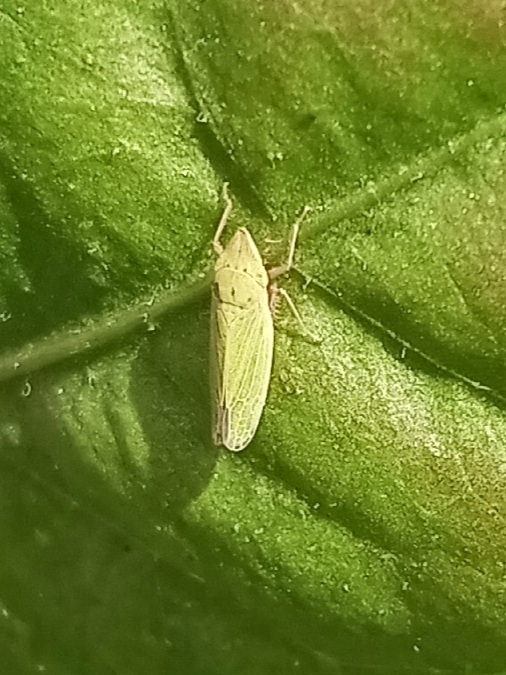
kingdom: Animalia
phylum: Arthropoda
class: Insecta
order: Hemiptera
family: Cicadellidae
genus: Draeculacephala
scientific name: Draeculacephala balli
